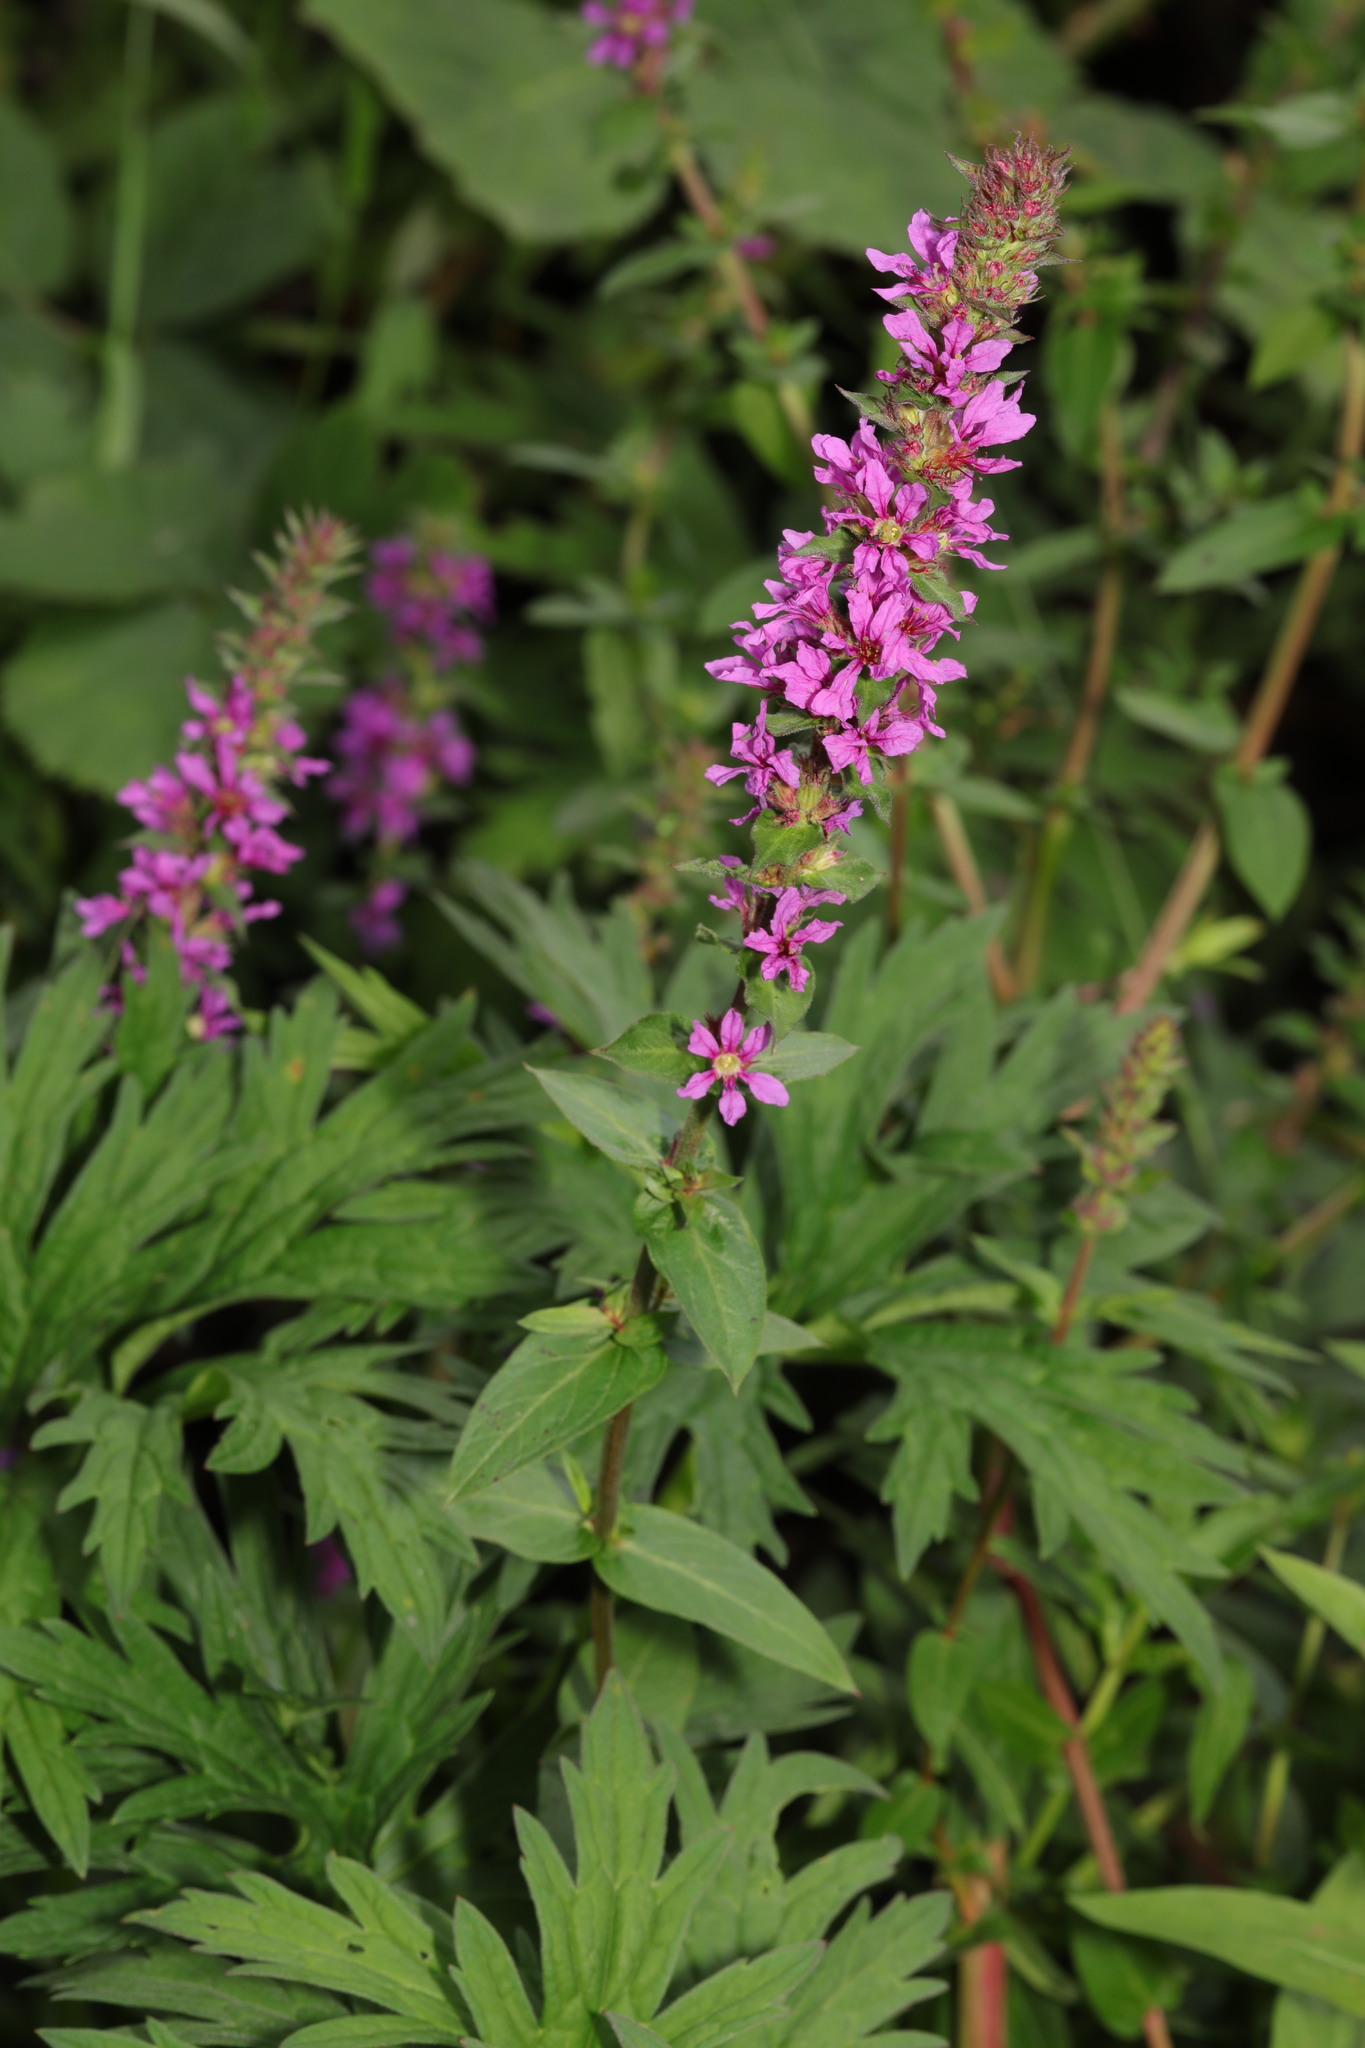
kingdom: Plantae
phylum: Tracheophyta
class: Magnoliopsida
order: Myrtales
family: Lythraceae
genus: Lythrum
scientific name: Lythrum salicaria
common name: Purple loosestrife
